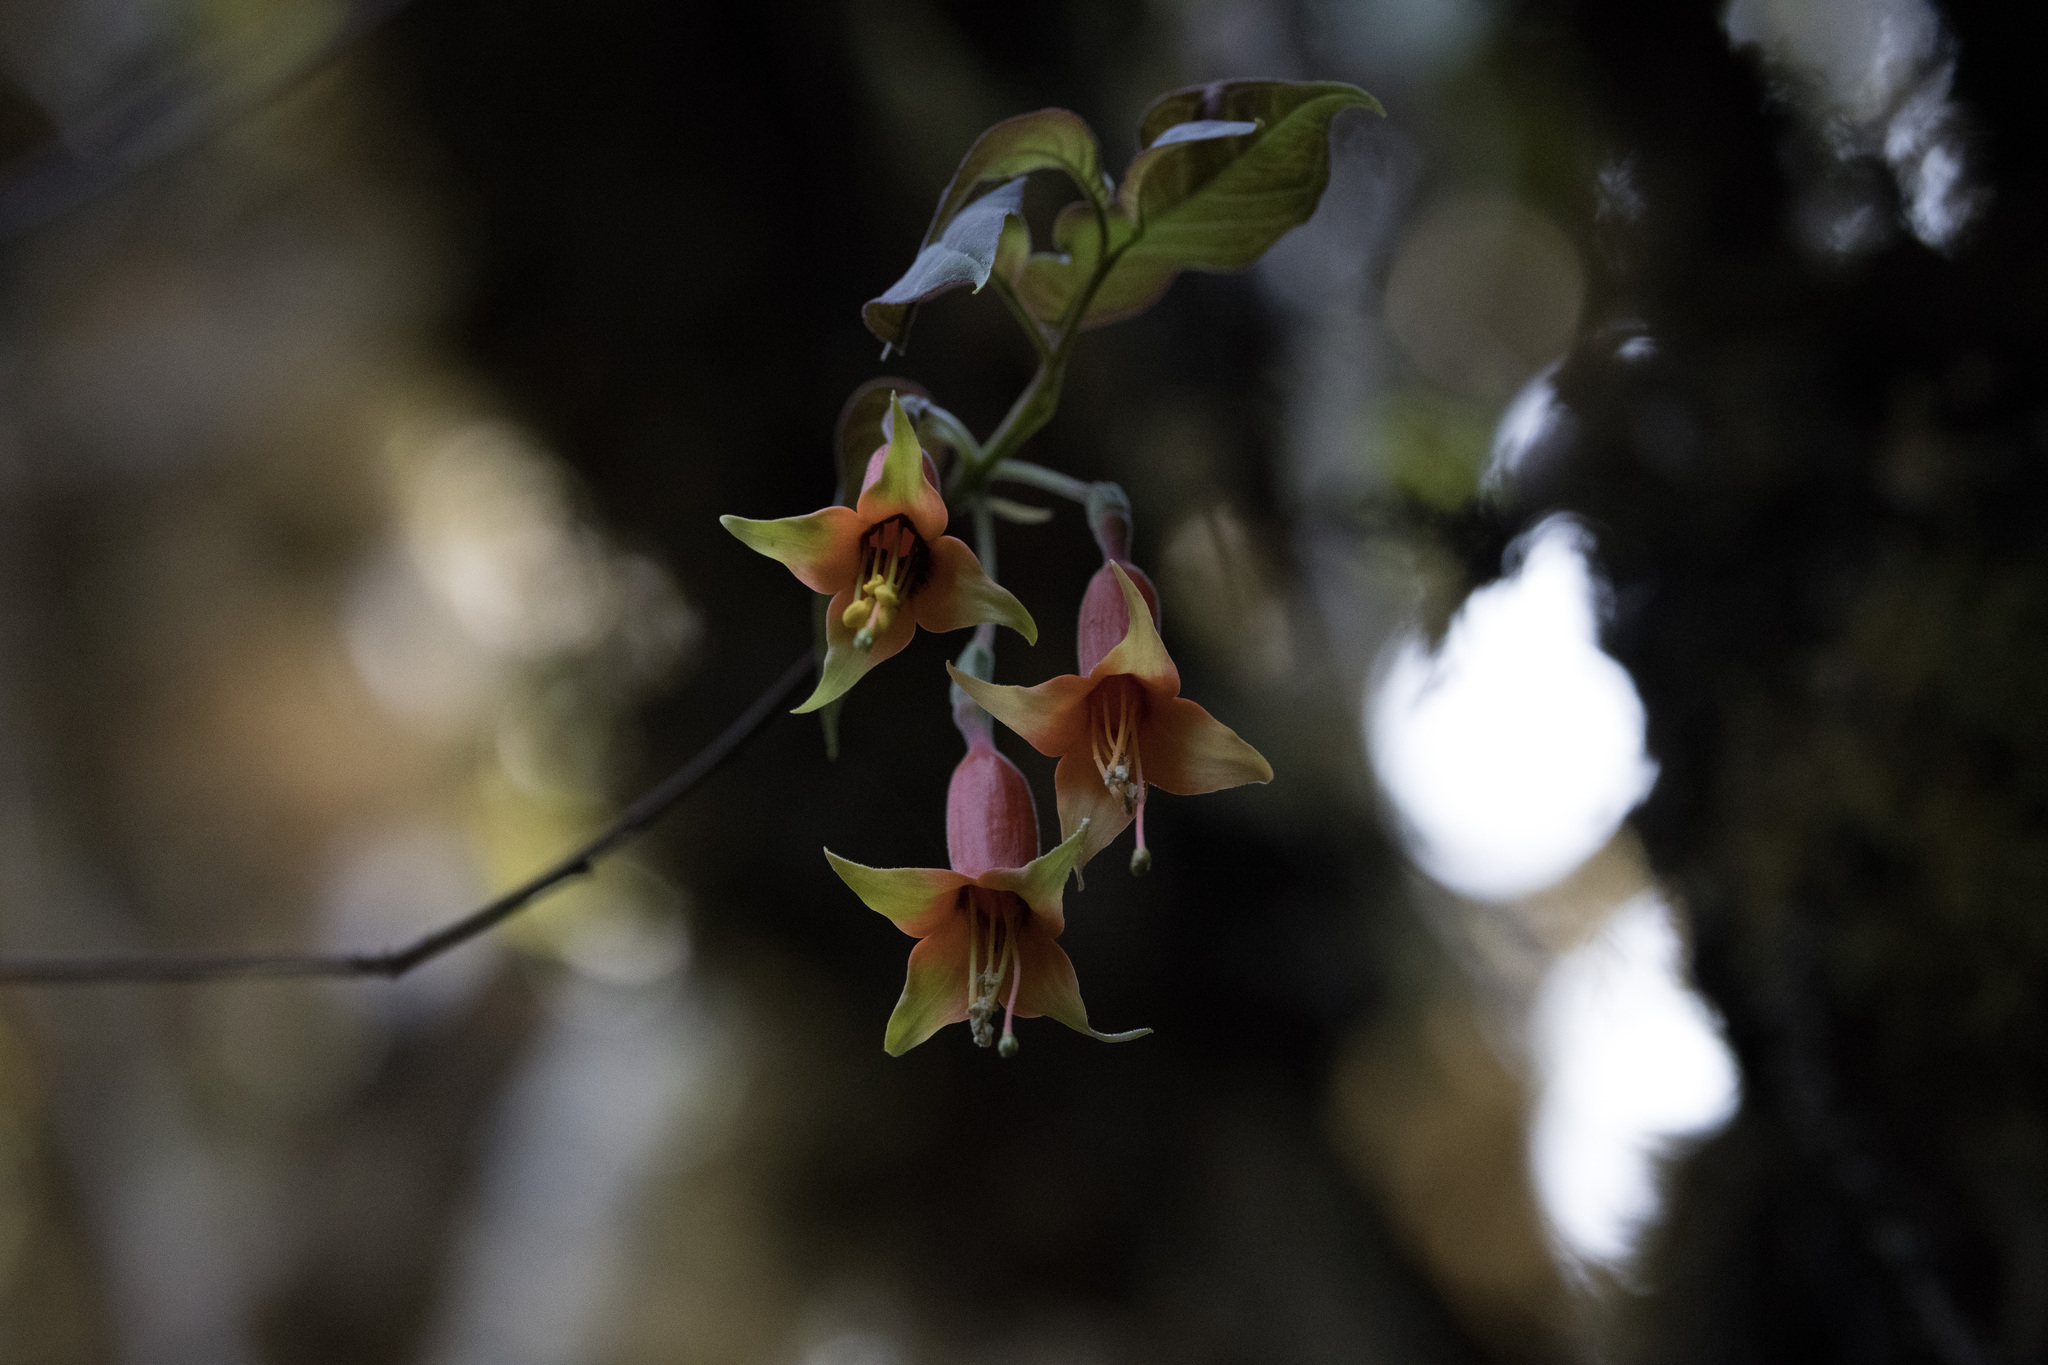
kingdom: Plantae
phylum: Tracheophyta
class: Magnoliopsida
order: Myrtales
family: Onagraceae
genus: Fuchsia
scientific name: Fuchsia chloroloba
